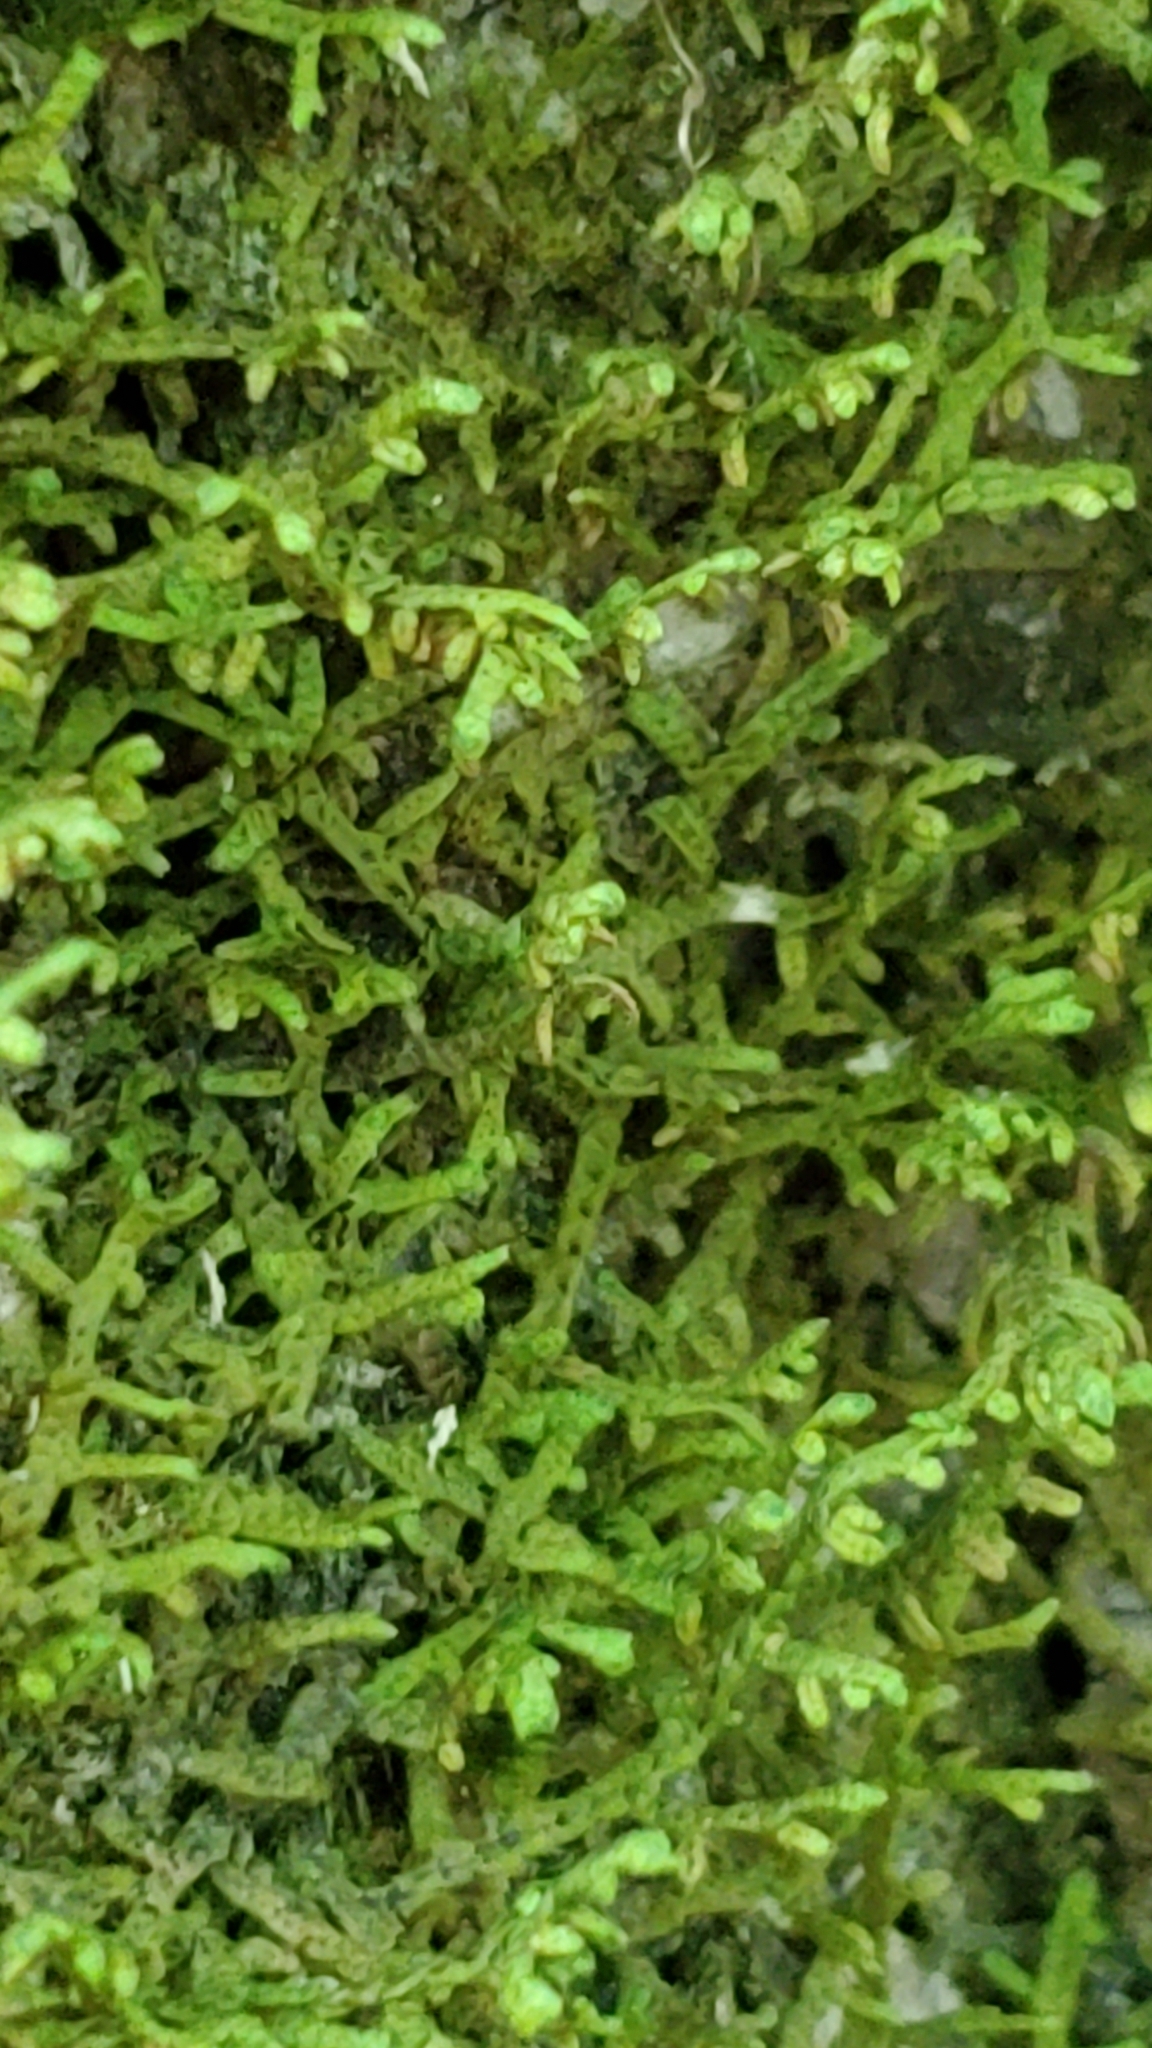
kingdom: Plantae
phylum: Marchantiophyta
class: Jungermanniopsida
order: Porellales
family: Porellaceae
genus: Porella
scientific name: Porella platyphylla
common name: Wall scalewort
